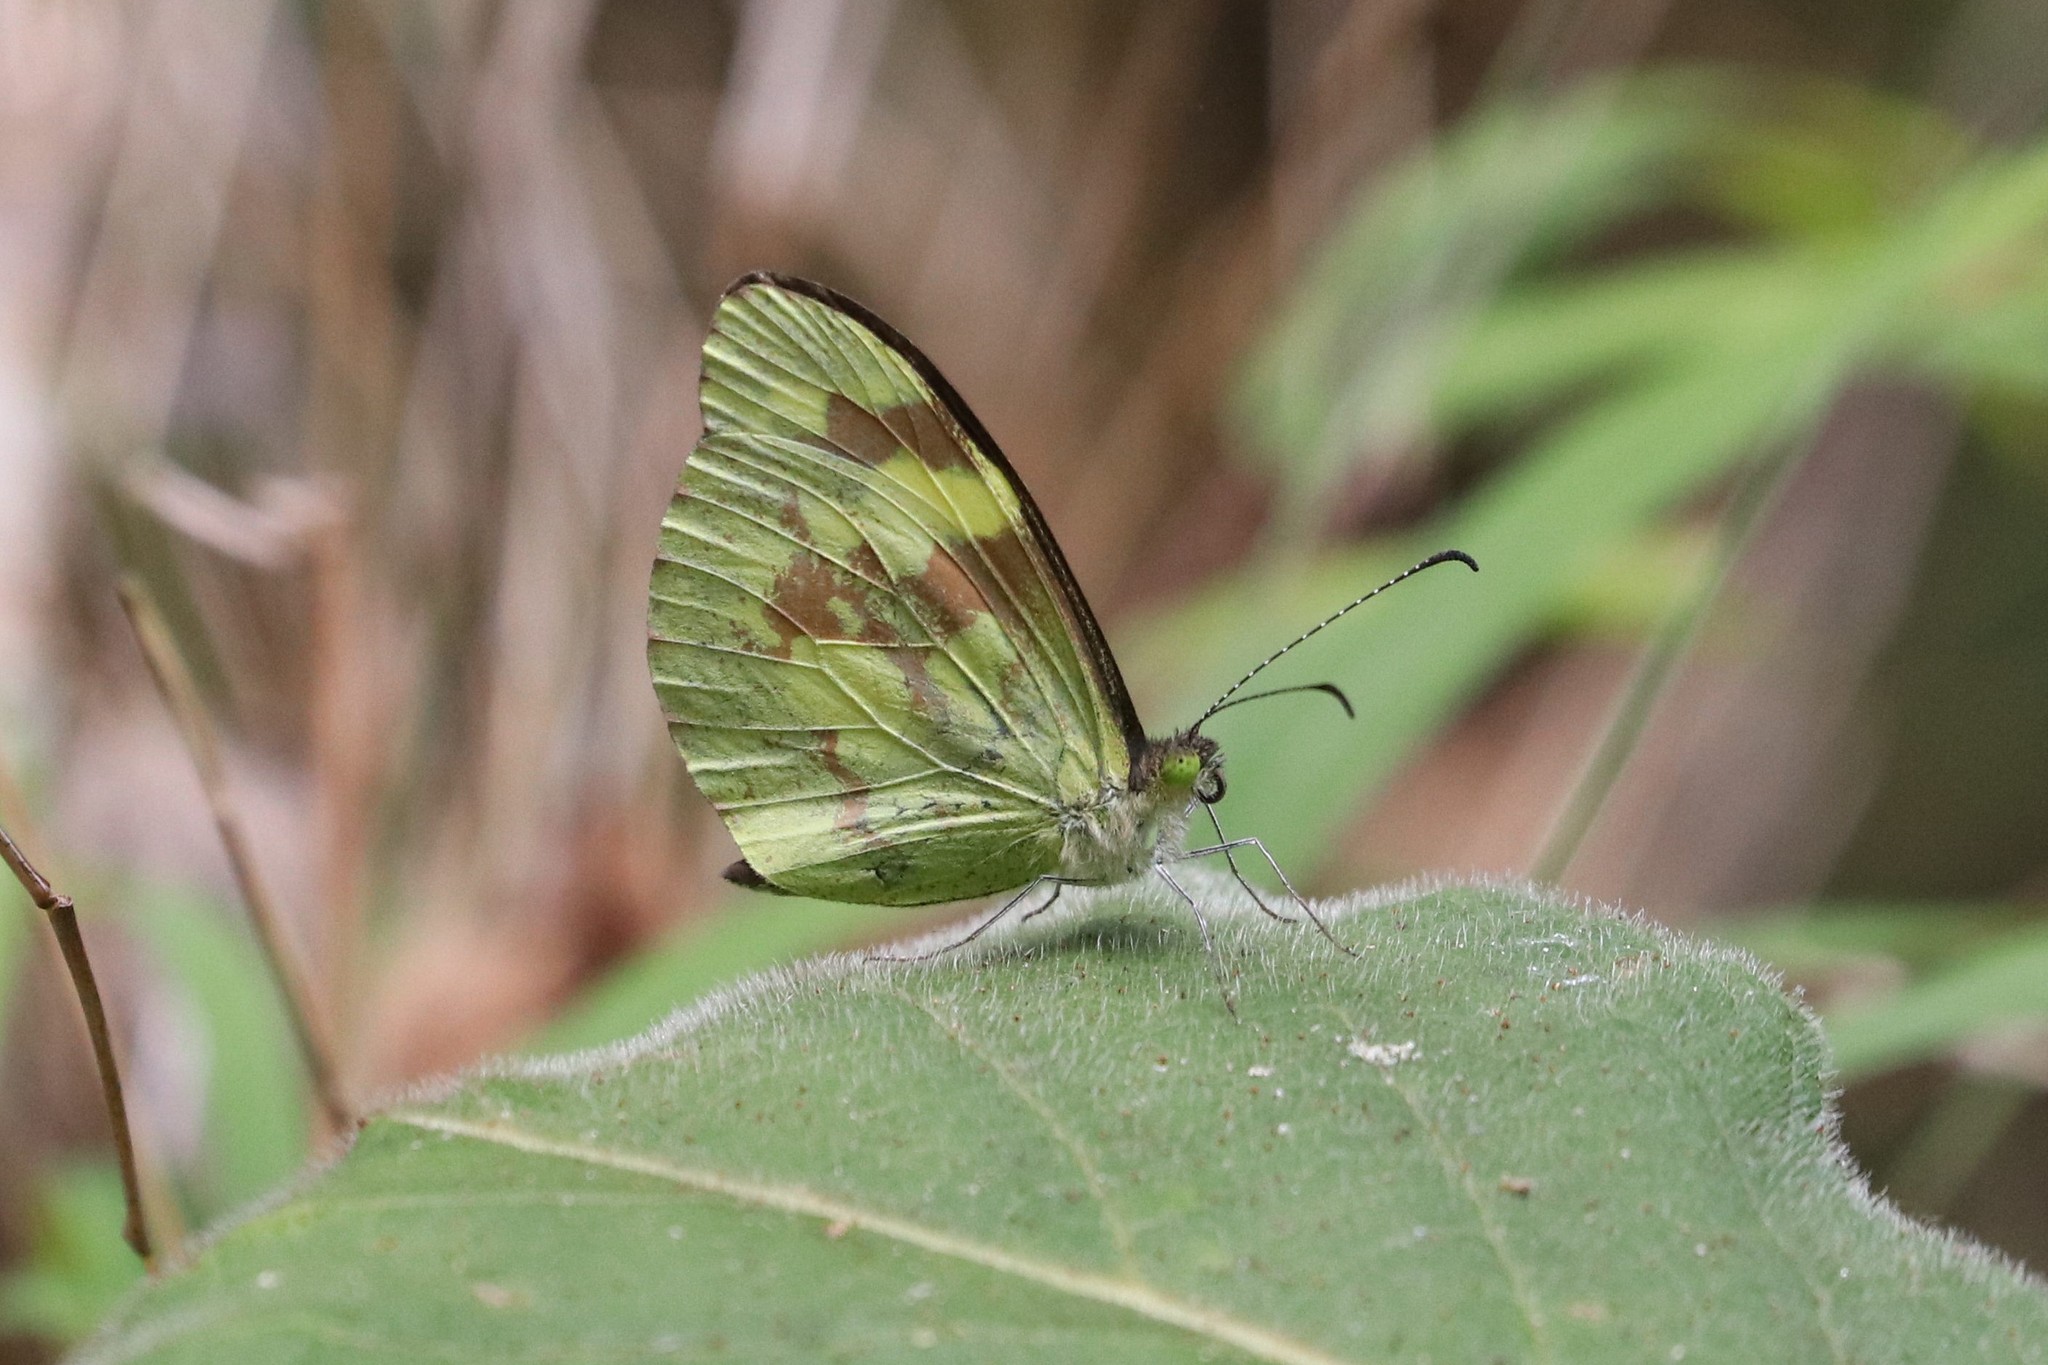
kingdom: Animalia
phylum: Arthropoda
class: Insecta
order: Lepidoptera
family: Pieridae
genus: Dismorphia
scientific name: Dismorphia medora
